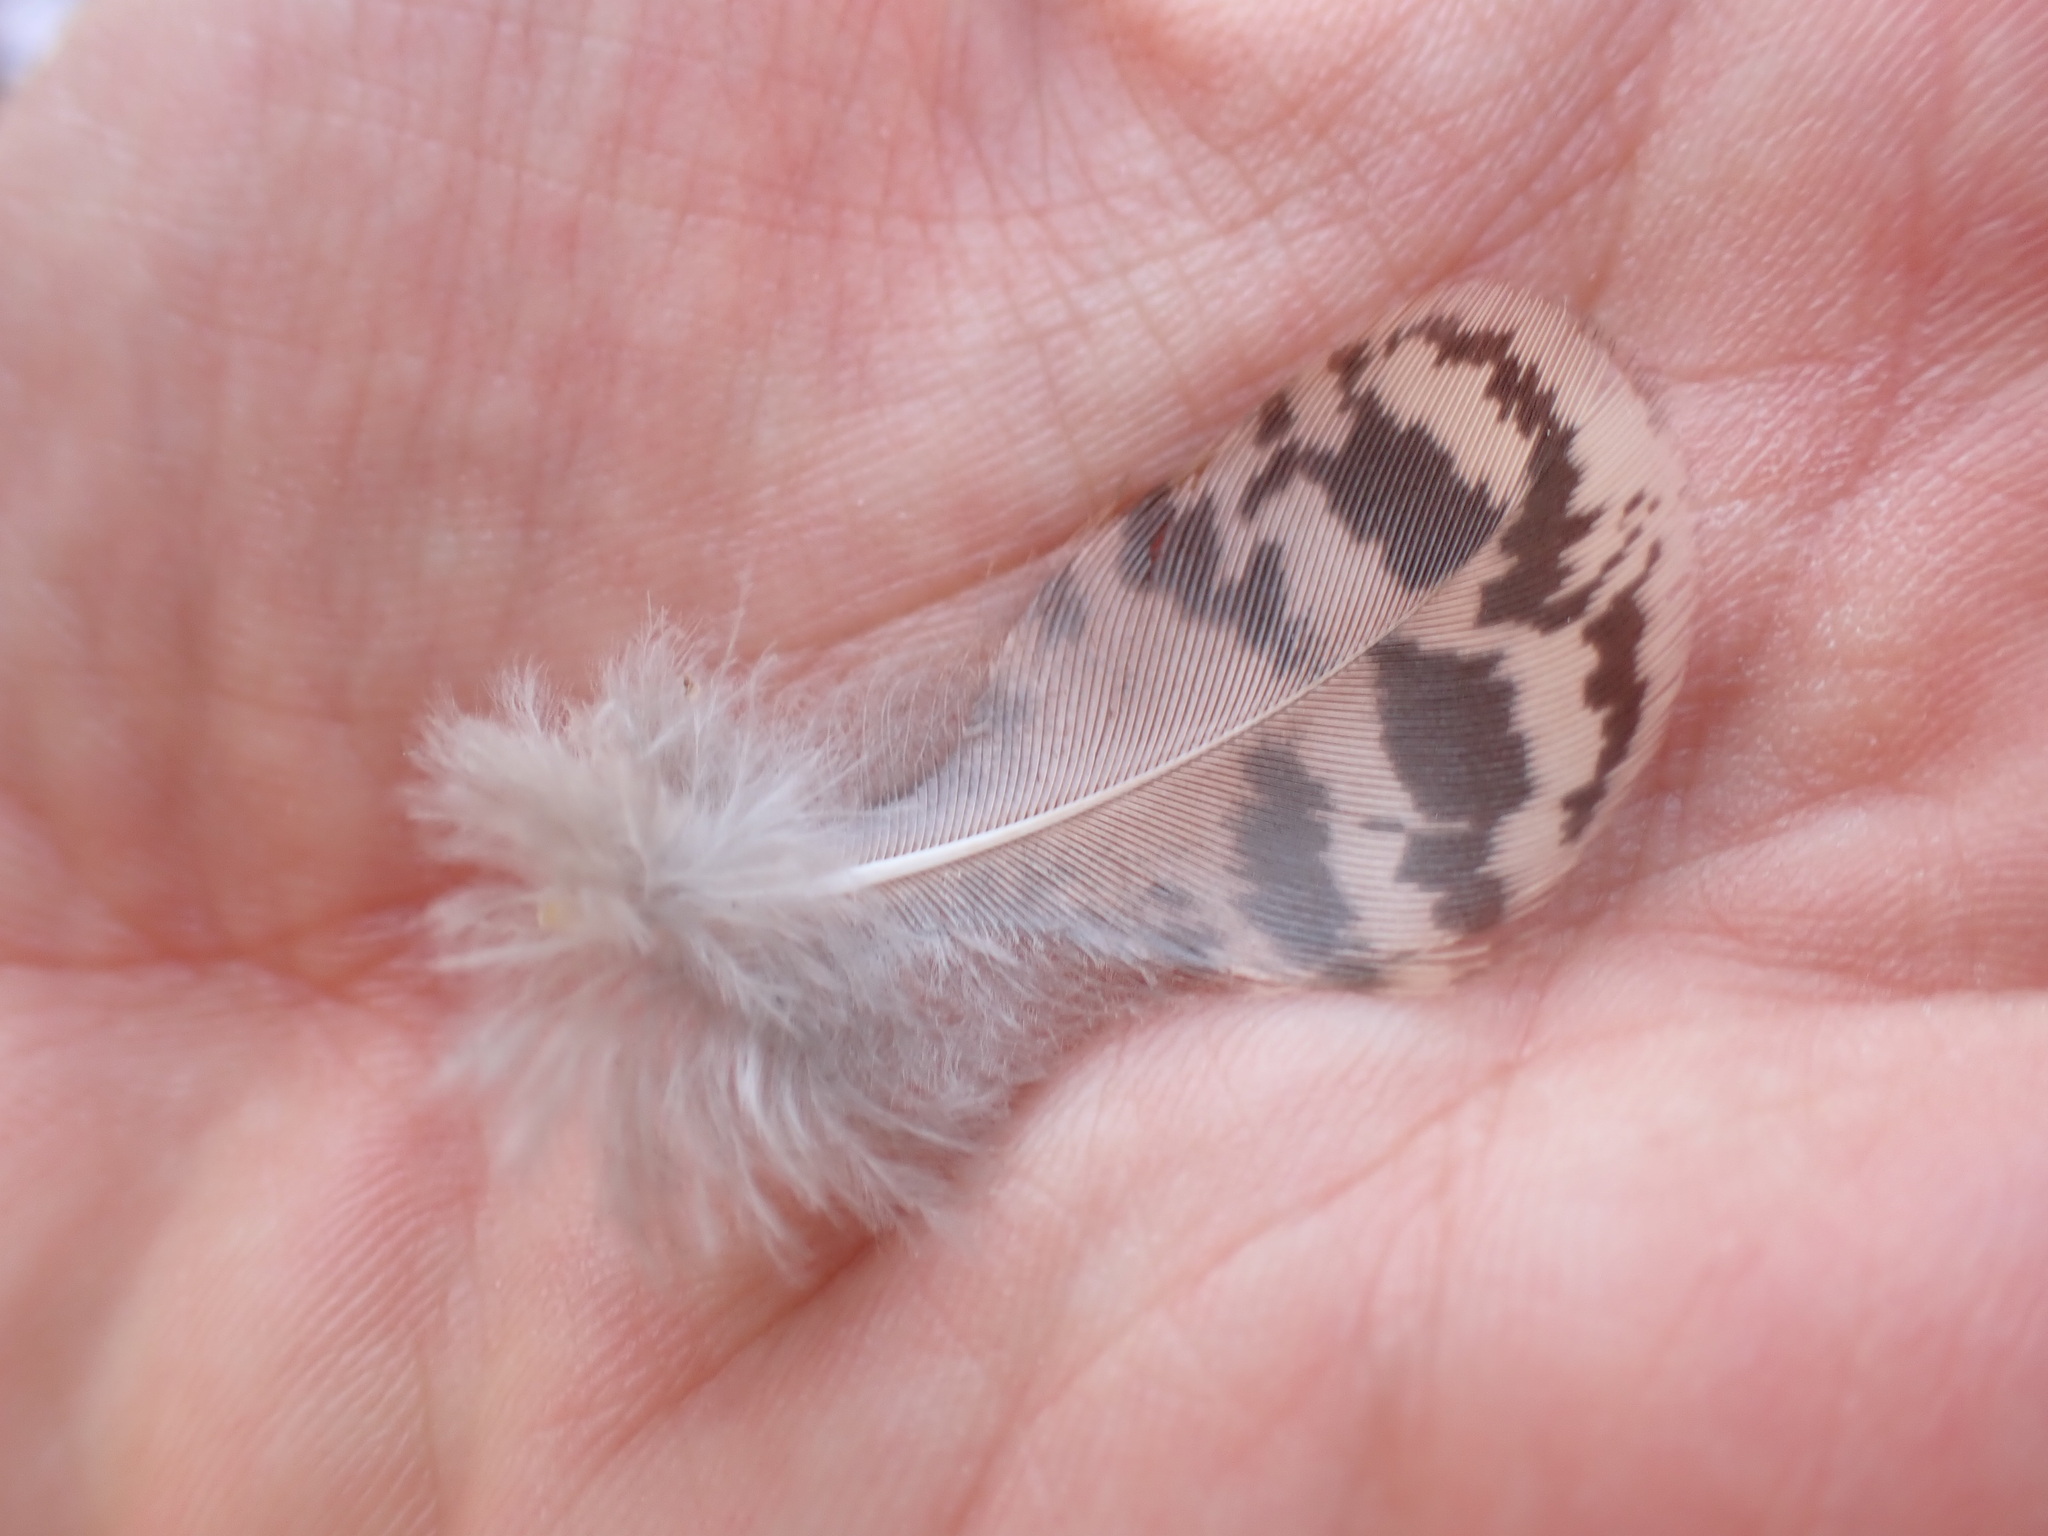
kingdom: Animalia
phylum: Chordata
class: Aves
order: Galliformes
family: Phasianidae
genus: Pavo
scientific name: Pavo cristatus
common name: Indian peafowl
